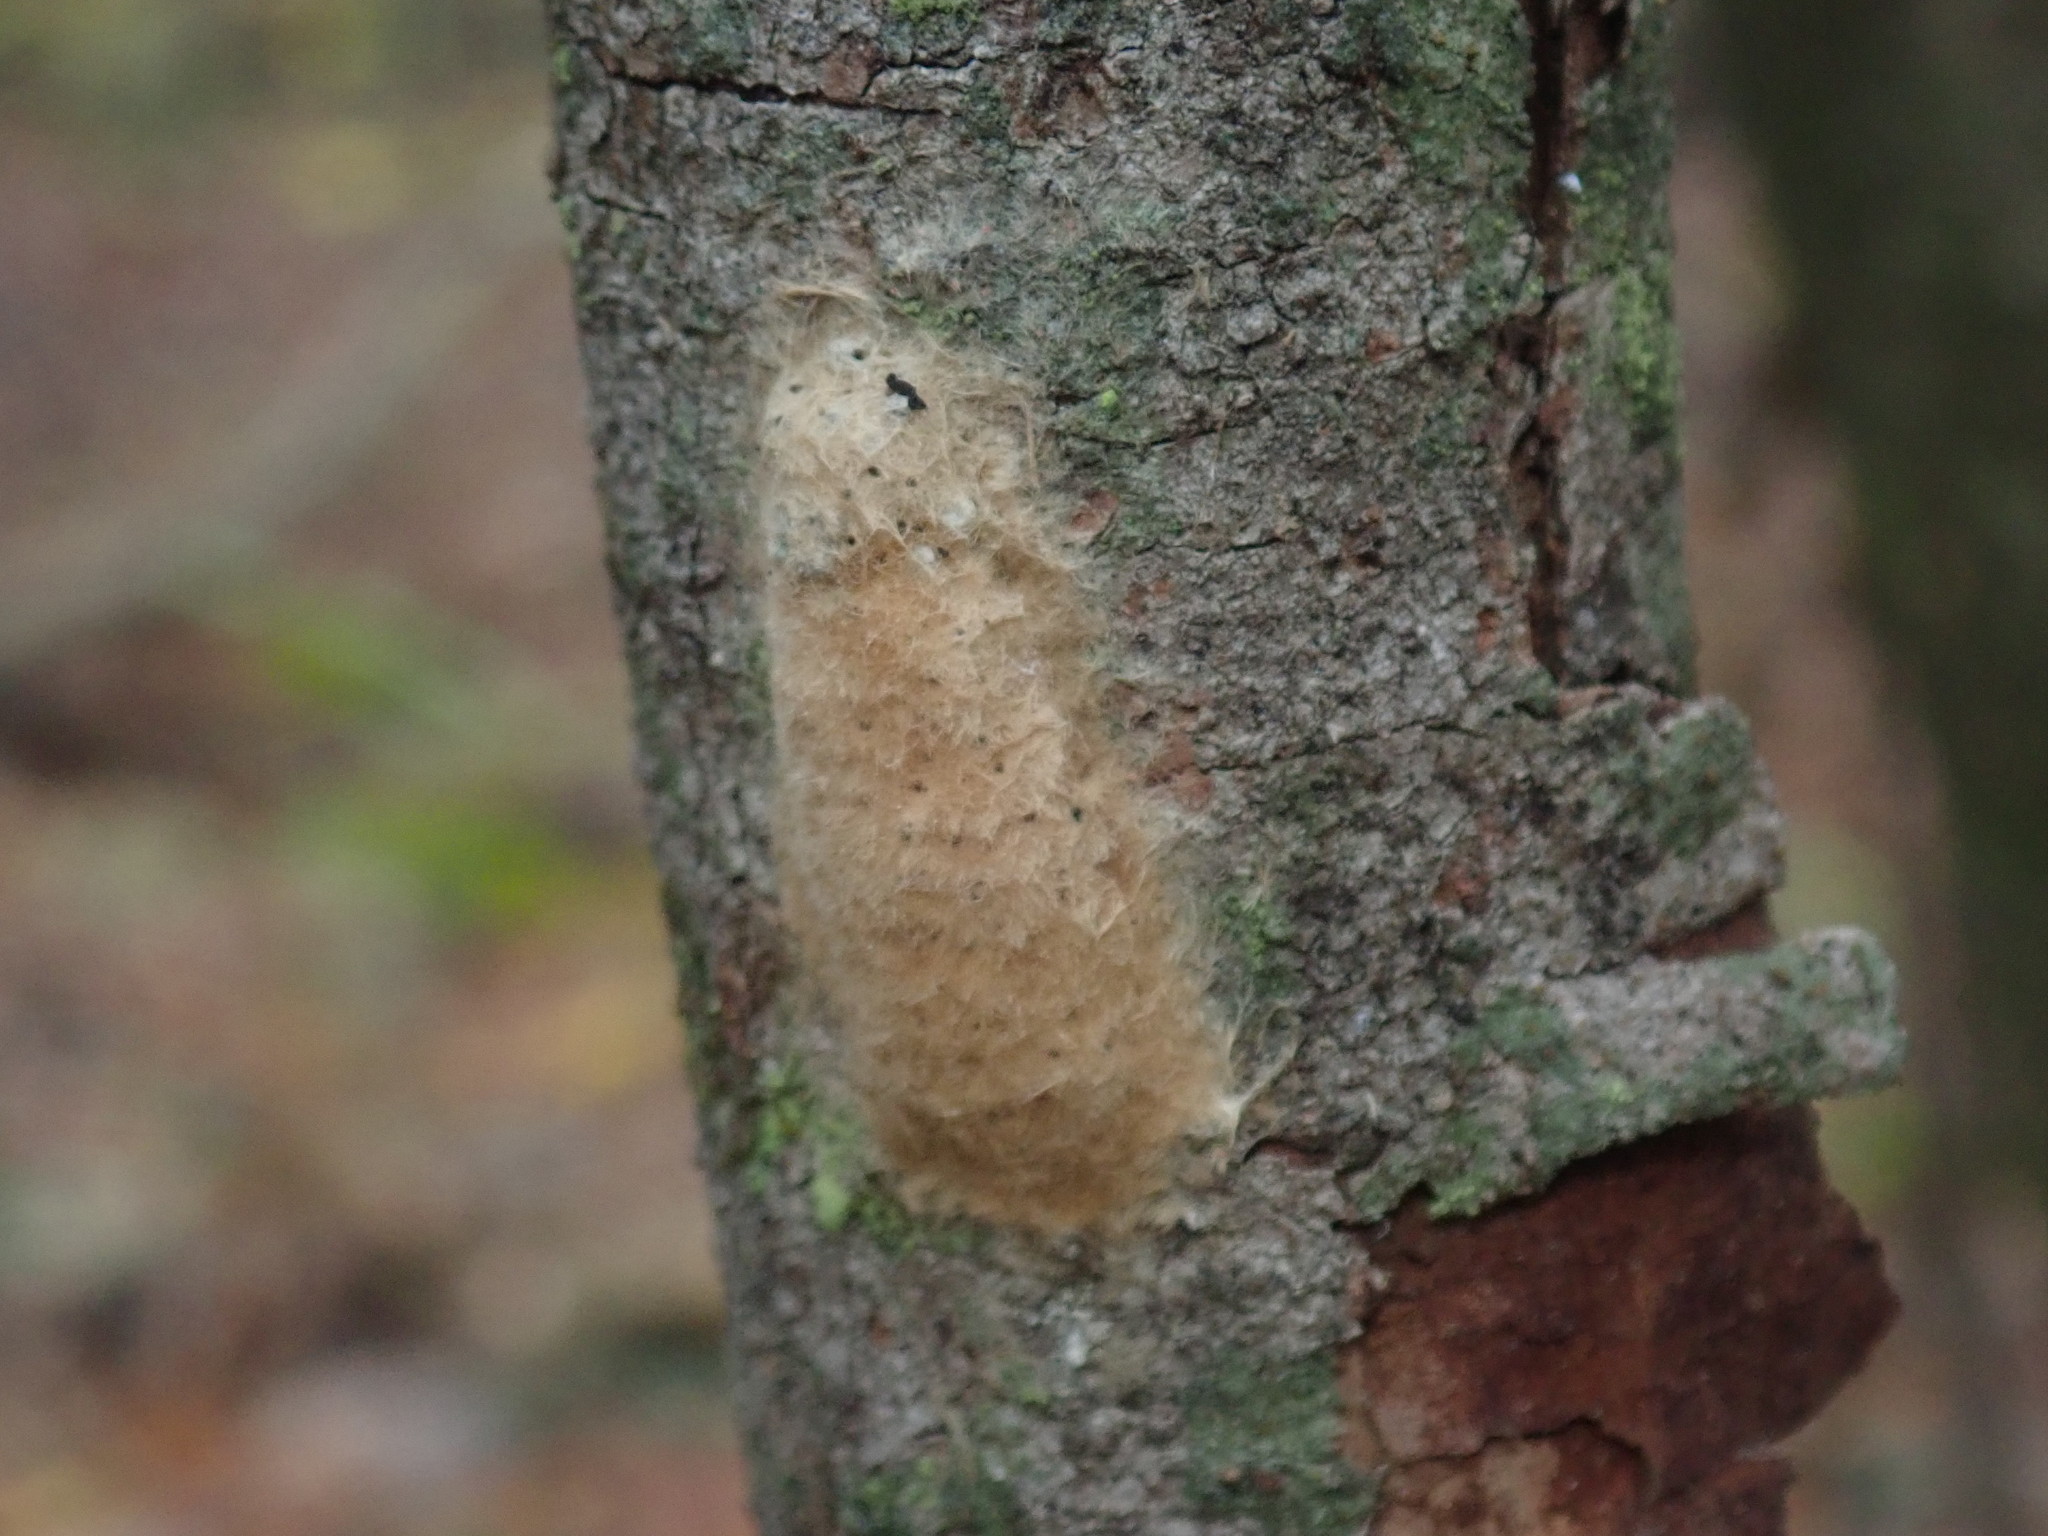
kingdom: Animalia
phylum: Arthropoda
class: Insecta
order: Lepidoptera
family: Erebidae
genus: Lymantria
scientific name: Lymantria dispar
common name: Gypsy moth
